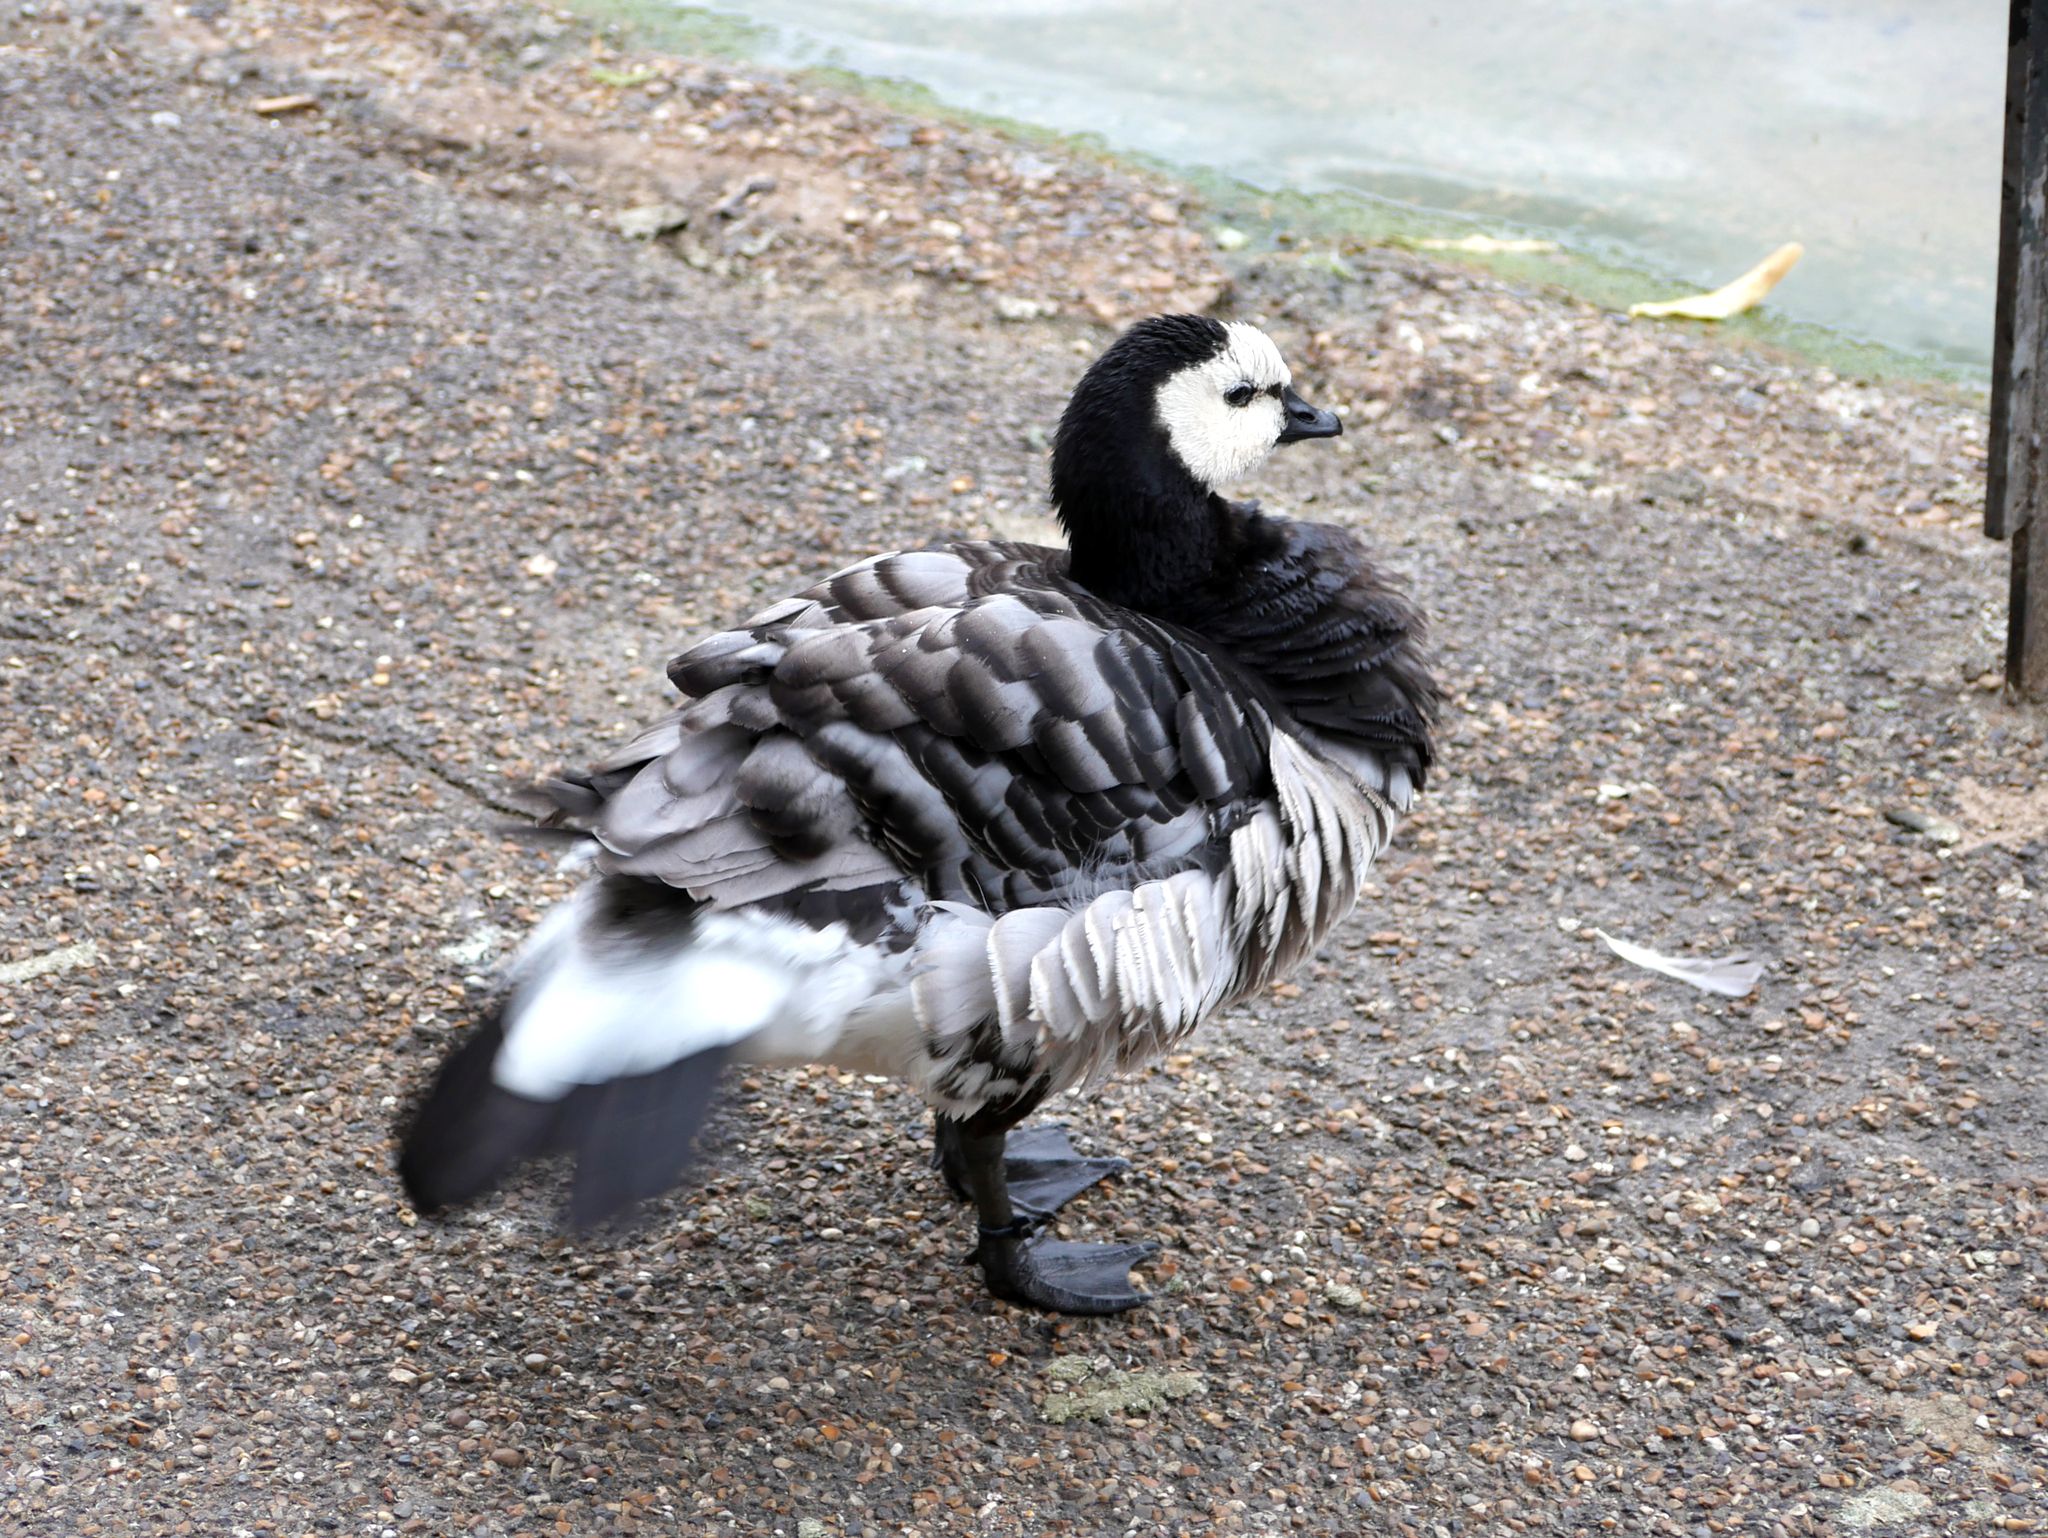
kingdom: Animalia
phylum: Chordata
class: Aves
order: Anseriformes
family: Anatidae
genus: Branta
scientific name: Branta leucopsis
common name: Barnacle goose
